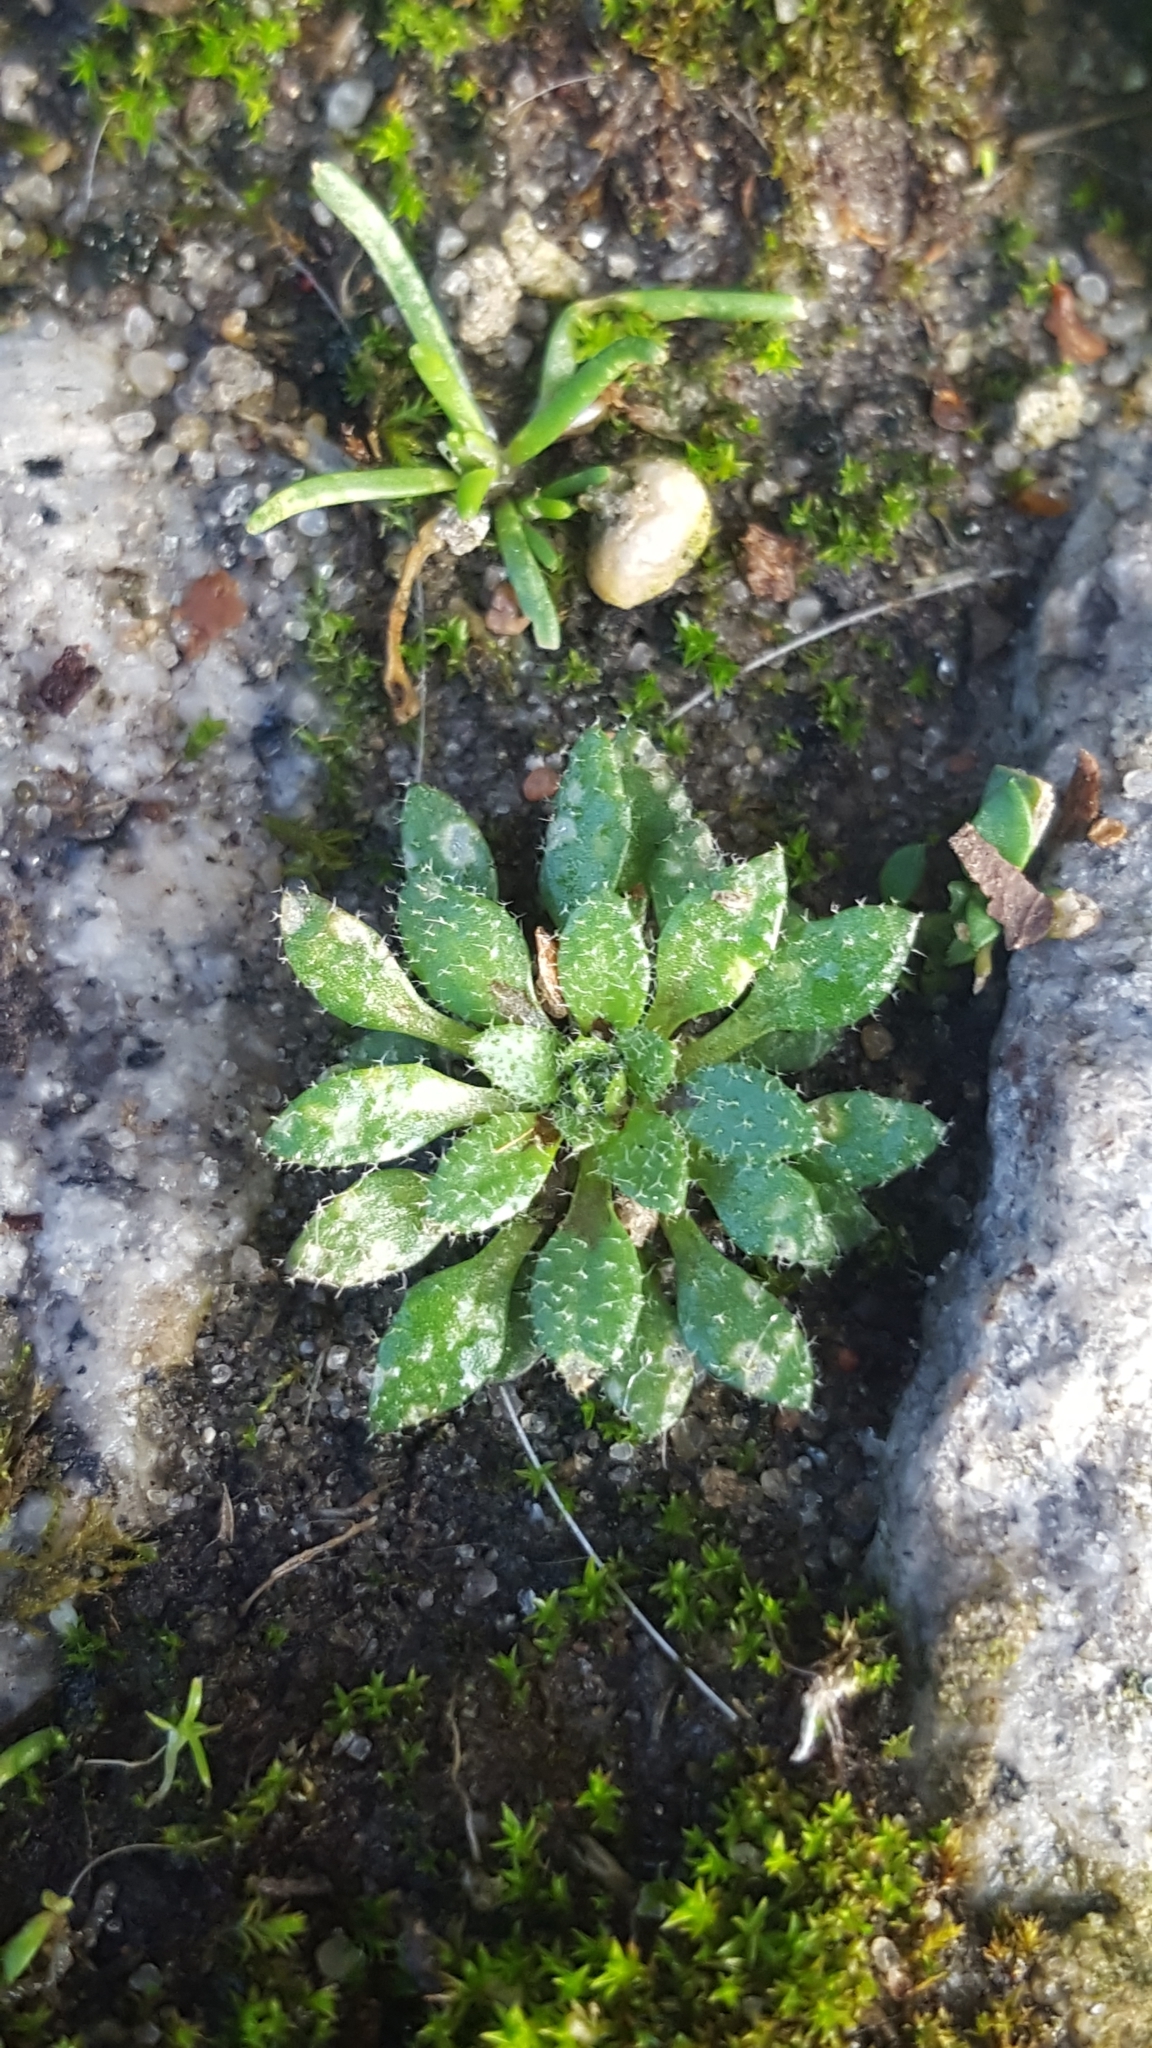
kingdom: Plantae
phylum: Tracheophyta
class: Magnoliopsida
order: Brassicales
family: Brassicaceae
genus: Draba
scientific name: Draba verna
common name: Spring draba
